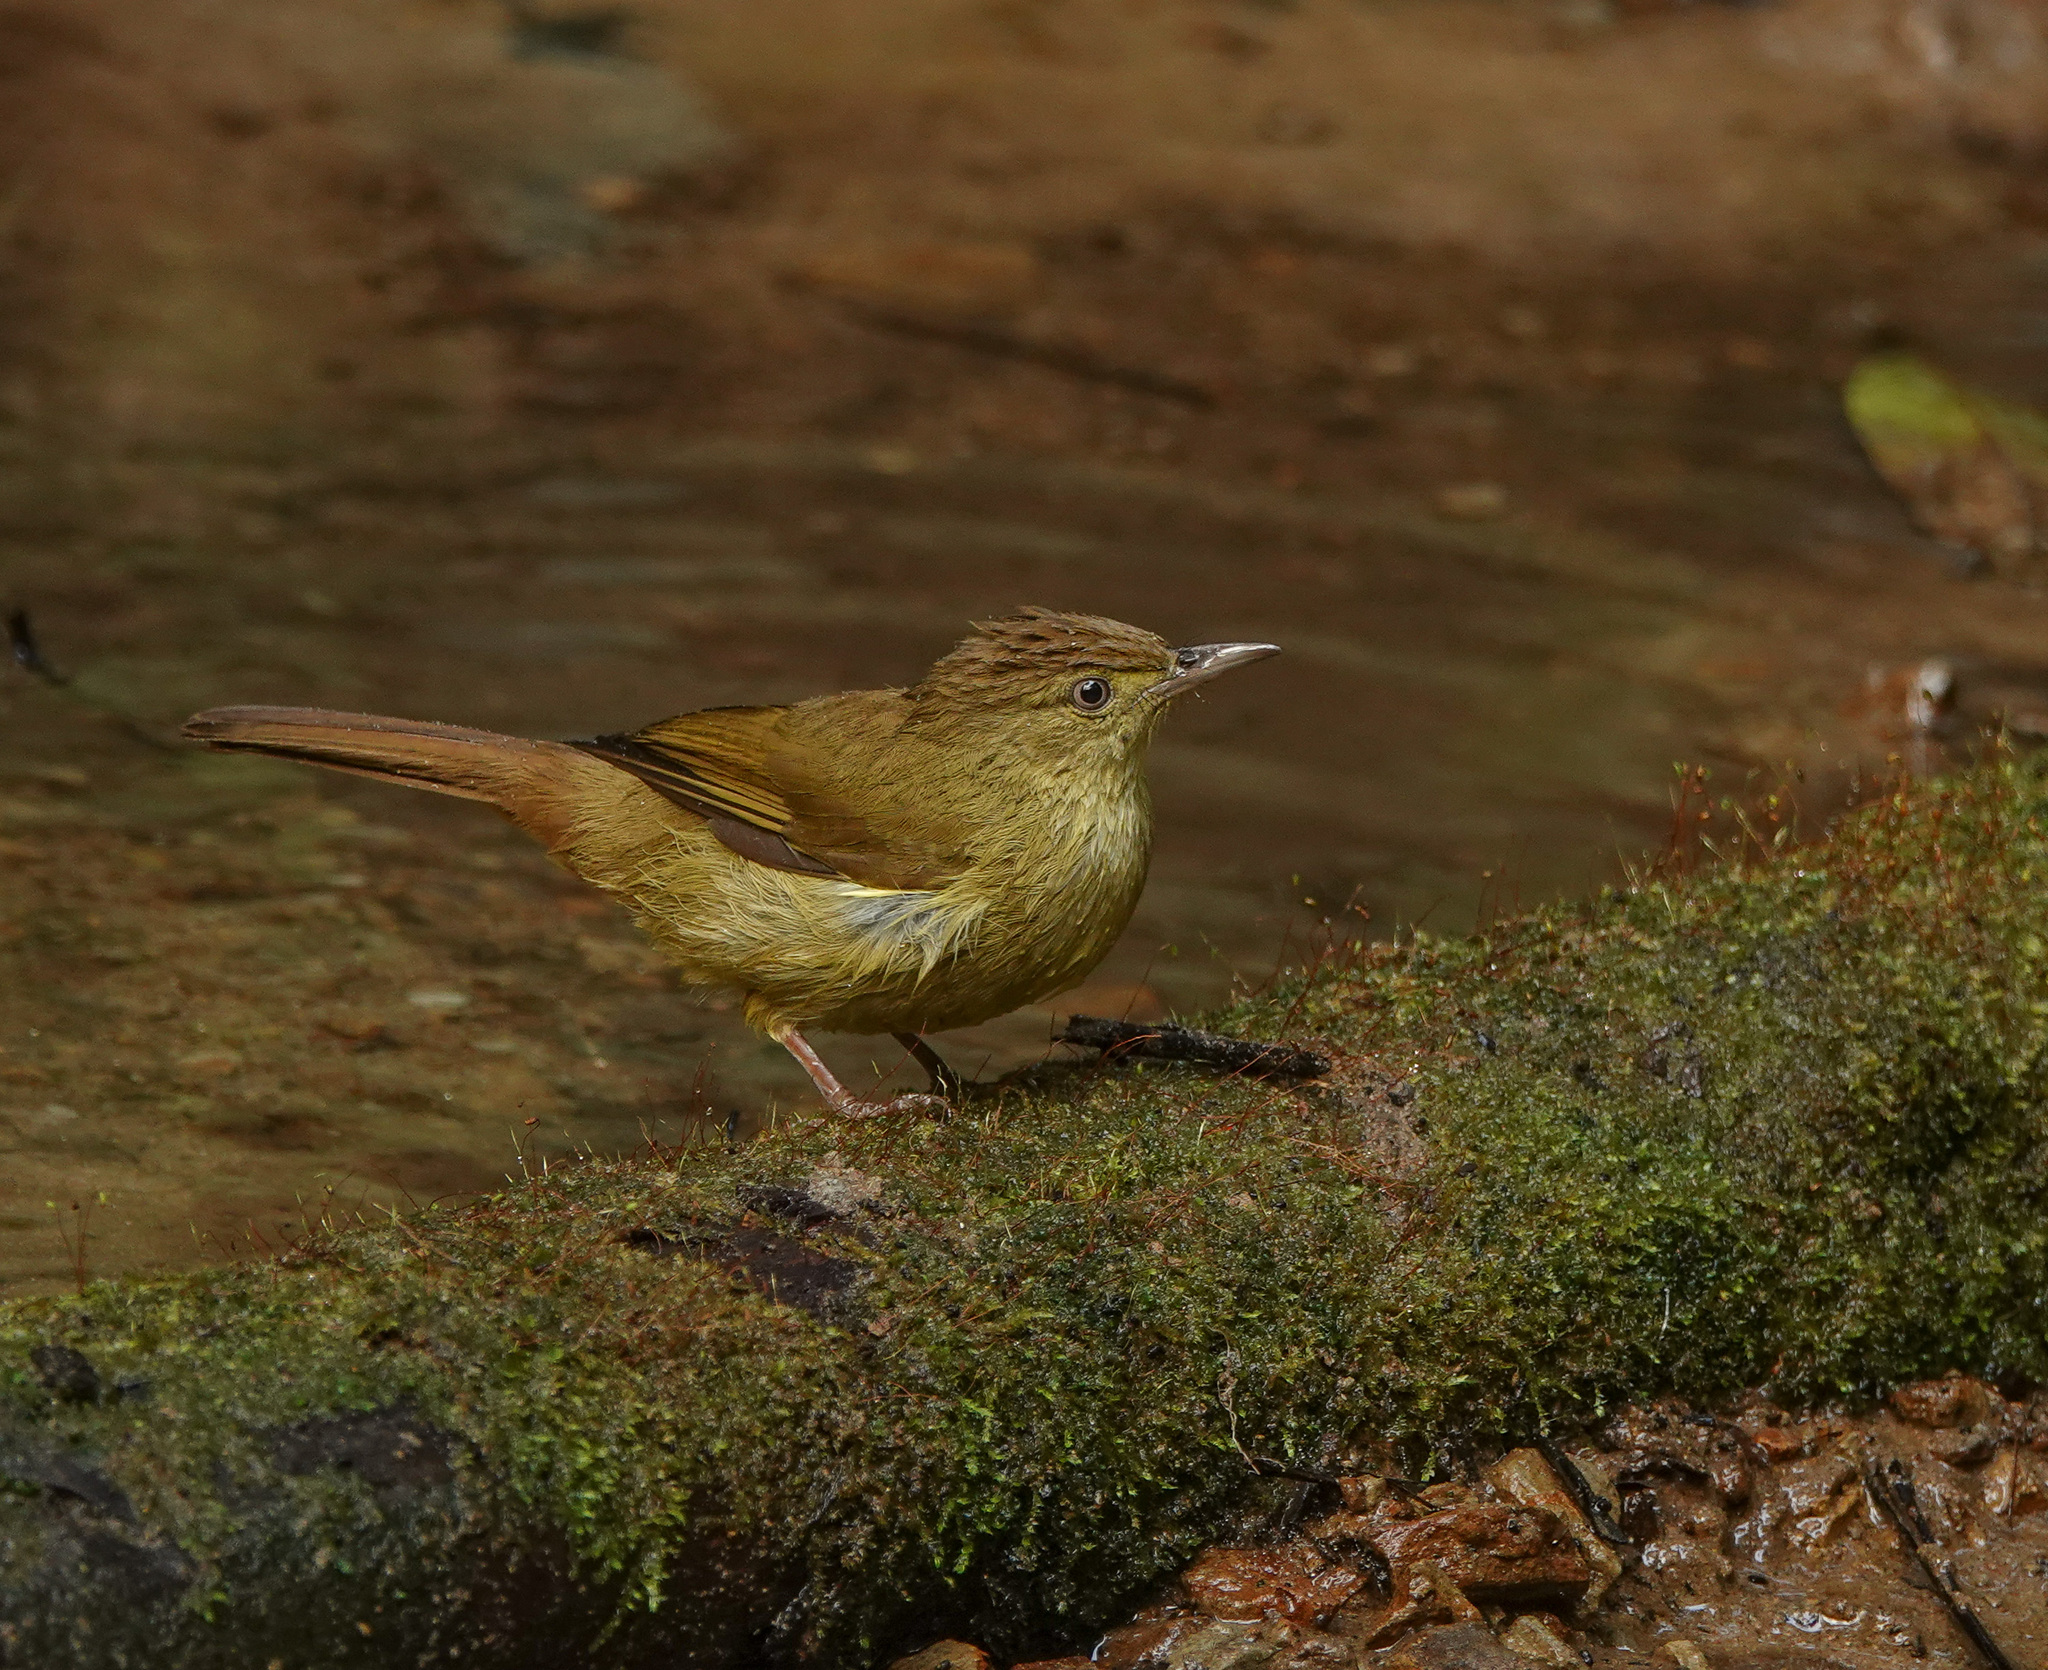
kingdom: Animalia
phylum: Chordata
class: Aves
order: Passeriformes
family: Pycnonotidae
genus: Iole
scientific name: Iole virescens
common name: Olive bulbul
